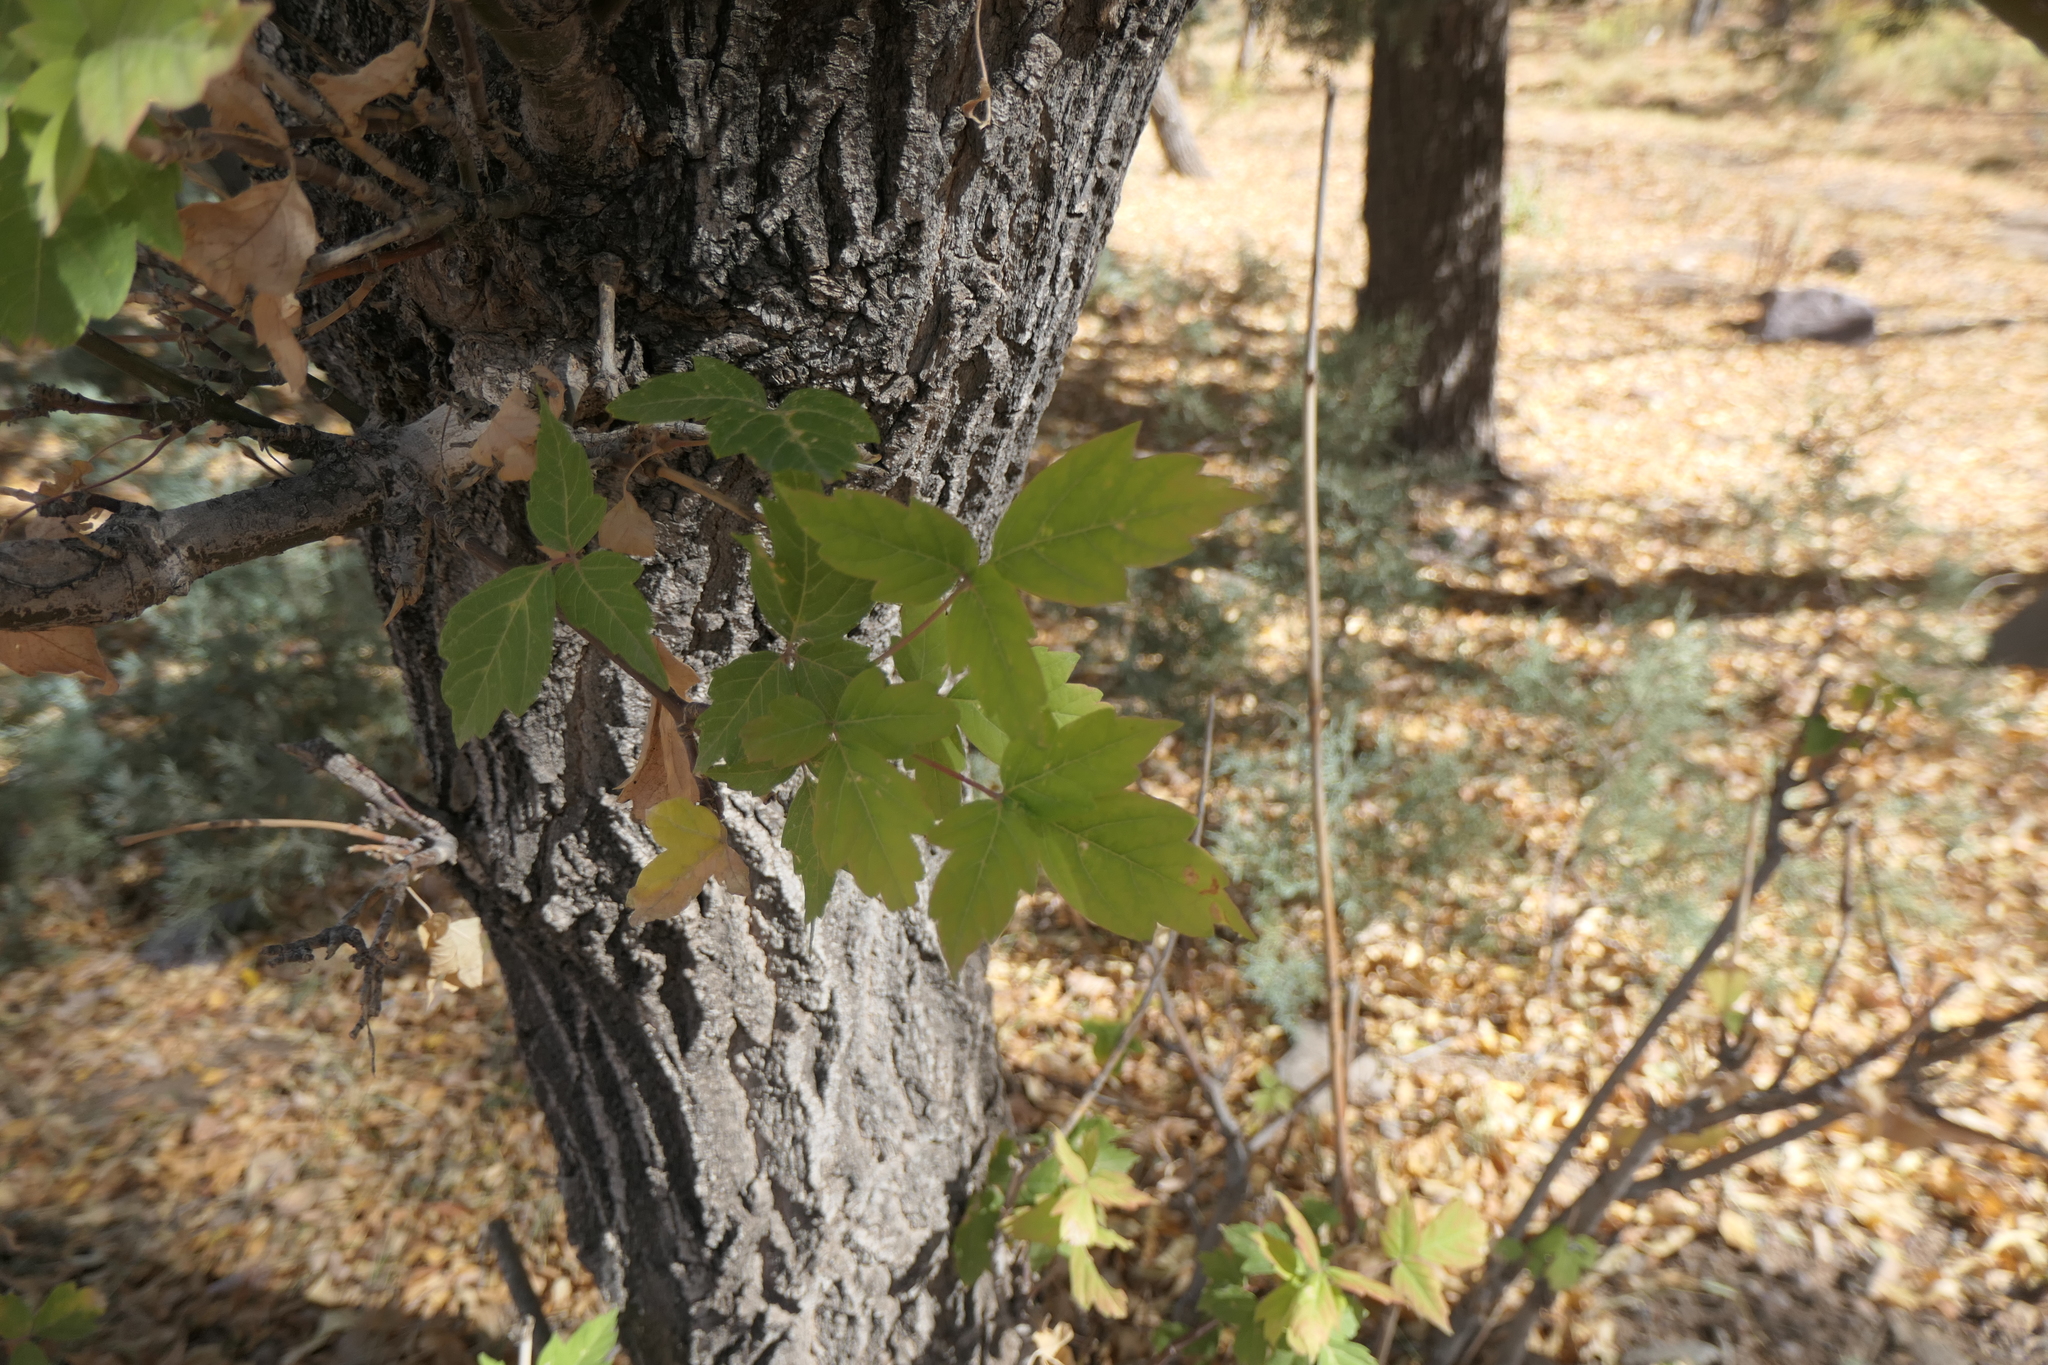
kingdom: Plantae
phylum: Tracheophyta
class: Magnoliopsida
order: Sapindales
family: Sapindaceae
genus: Acer
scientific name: Acer negundo
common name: Ashleaf maple
